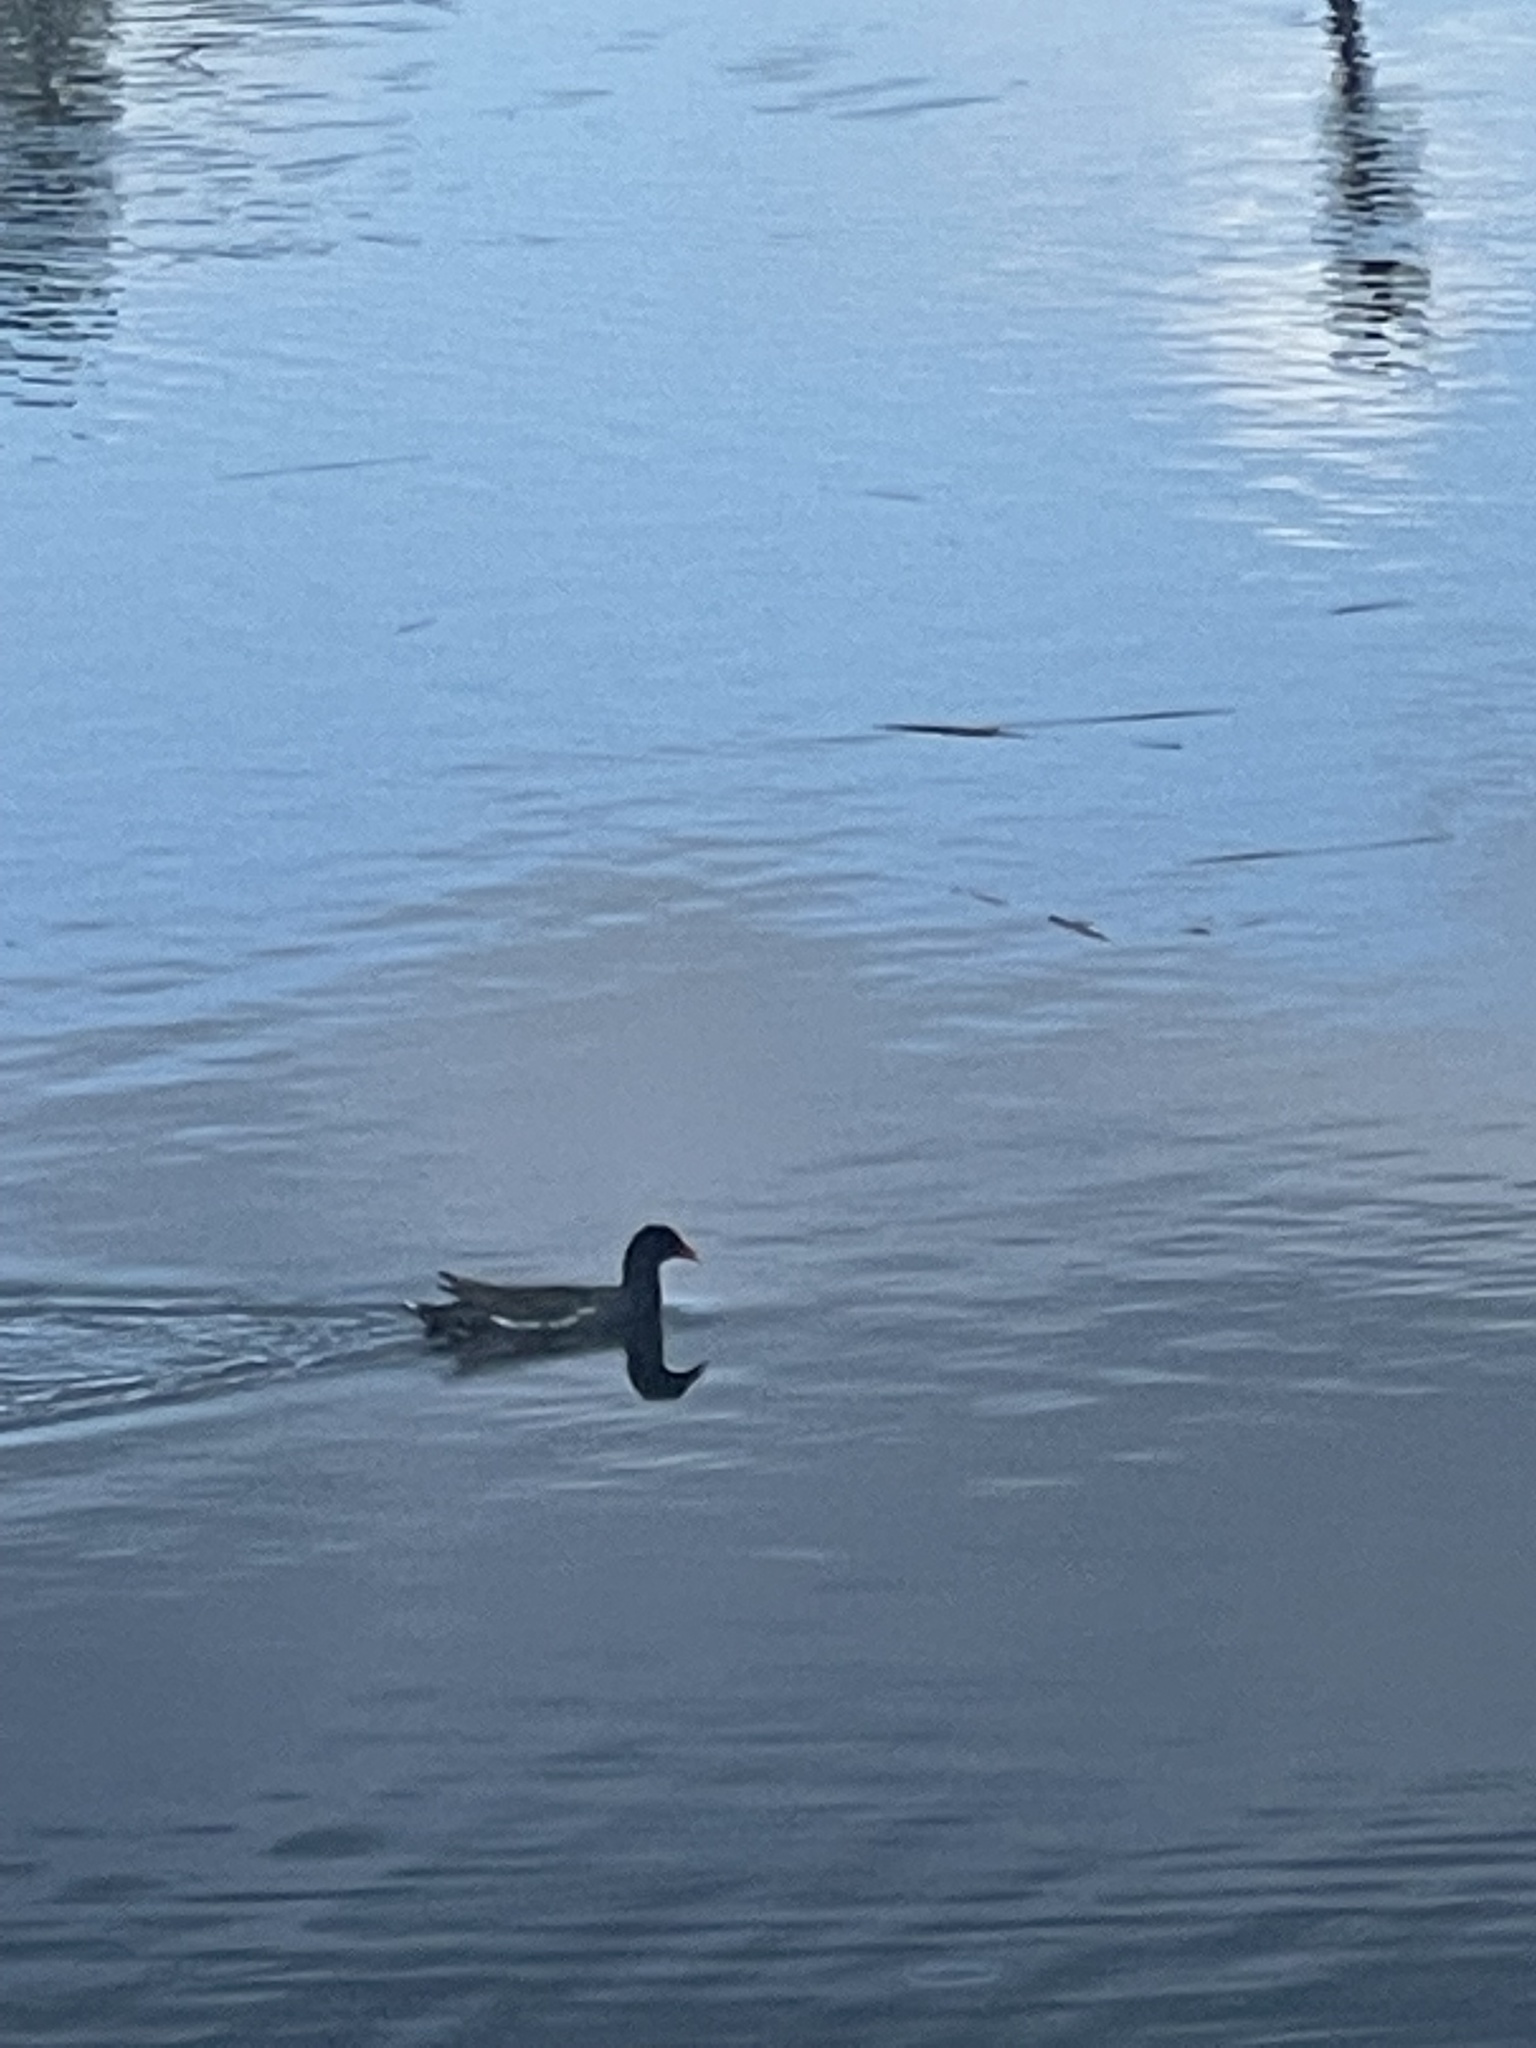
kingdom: Animalia
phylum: Chordata
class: Aves
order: Gruiformes
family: Rallidae
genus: Gallinula
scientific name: Gallinula chloropus
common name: Common moorhen
